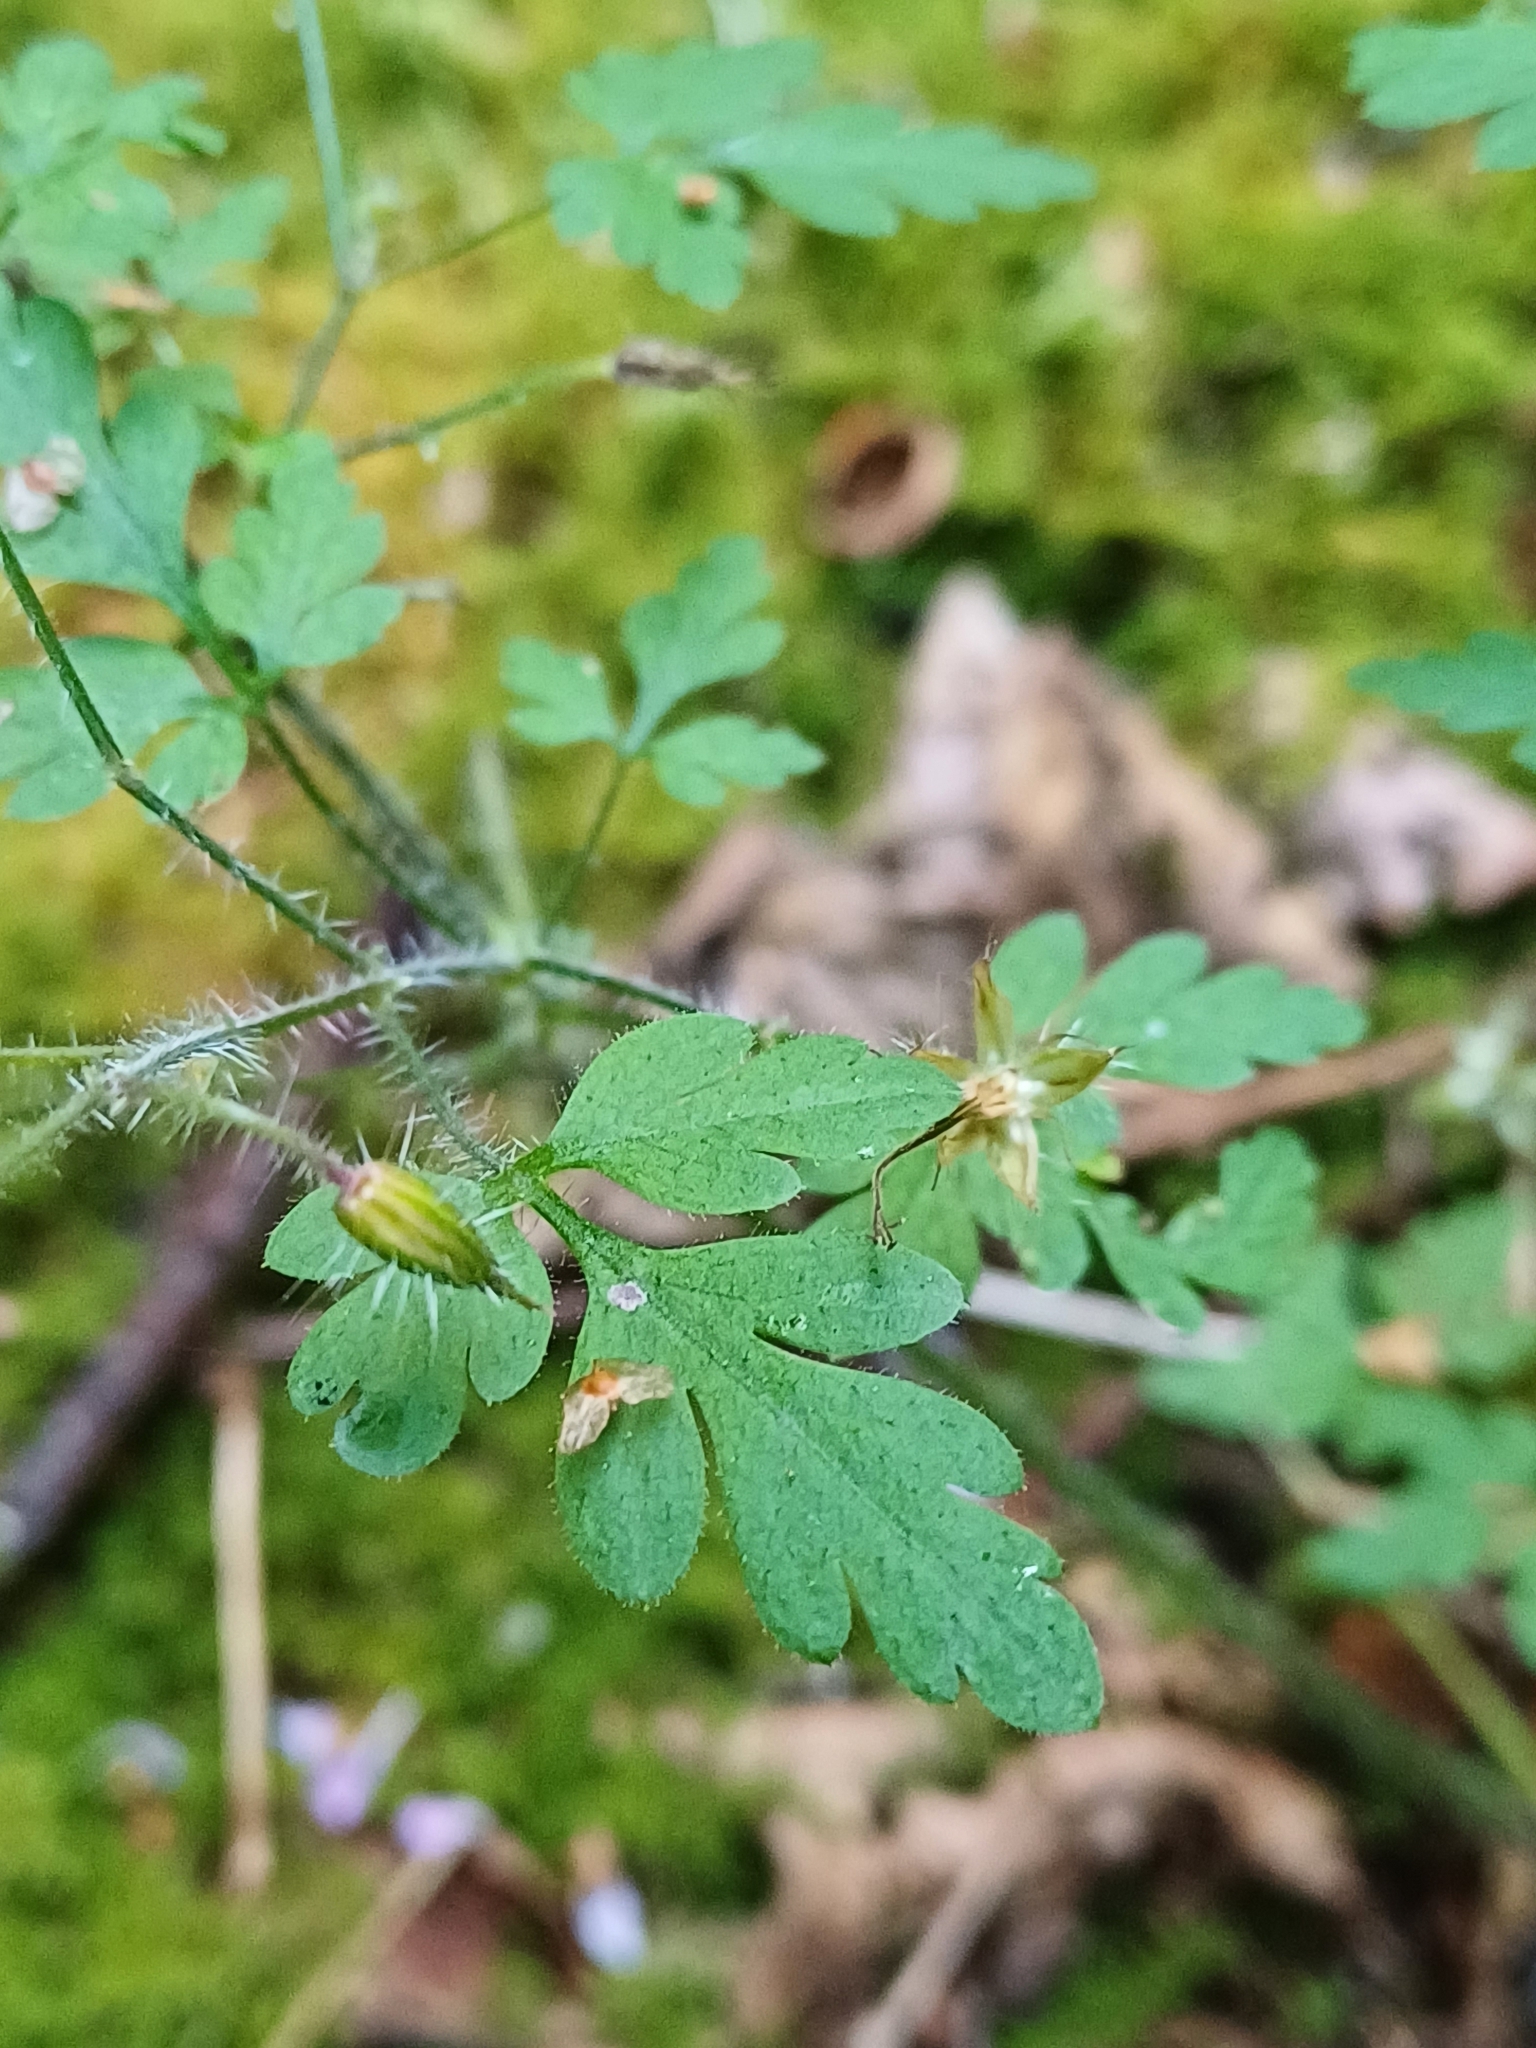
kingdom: Plantae
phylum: Tracheophyta
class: Magnoliopsida
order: Geraniales
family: Geraniaceae
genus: Geranium
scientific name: Geranium robertianum
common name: Herb-robert
